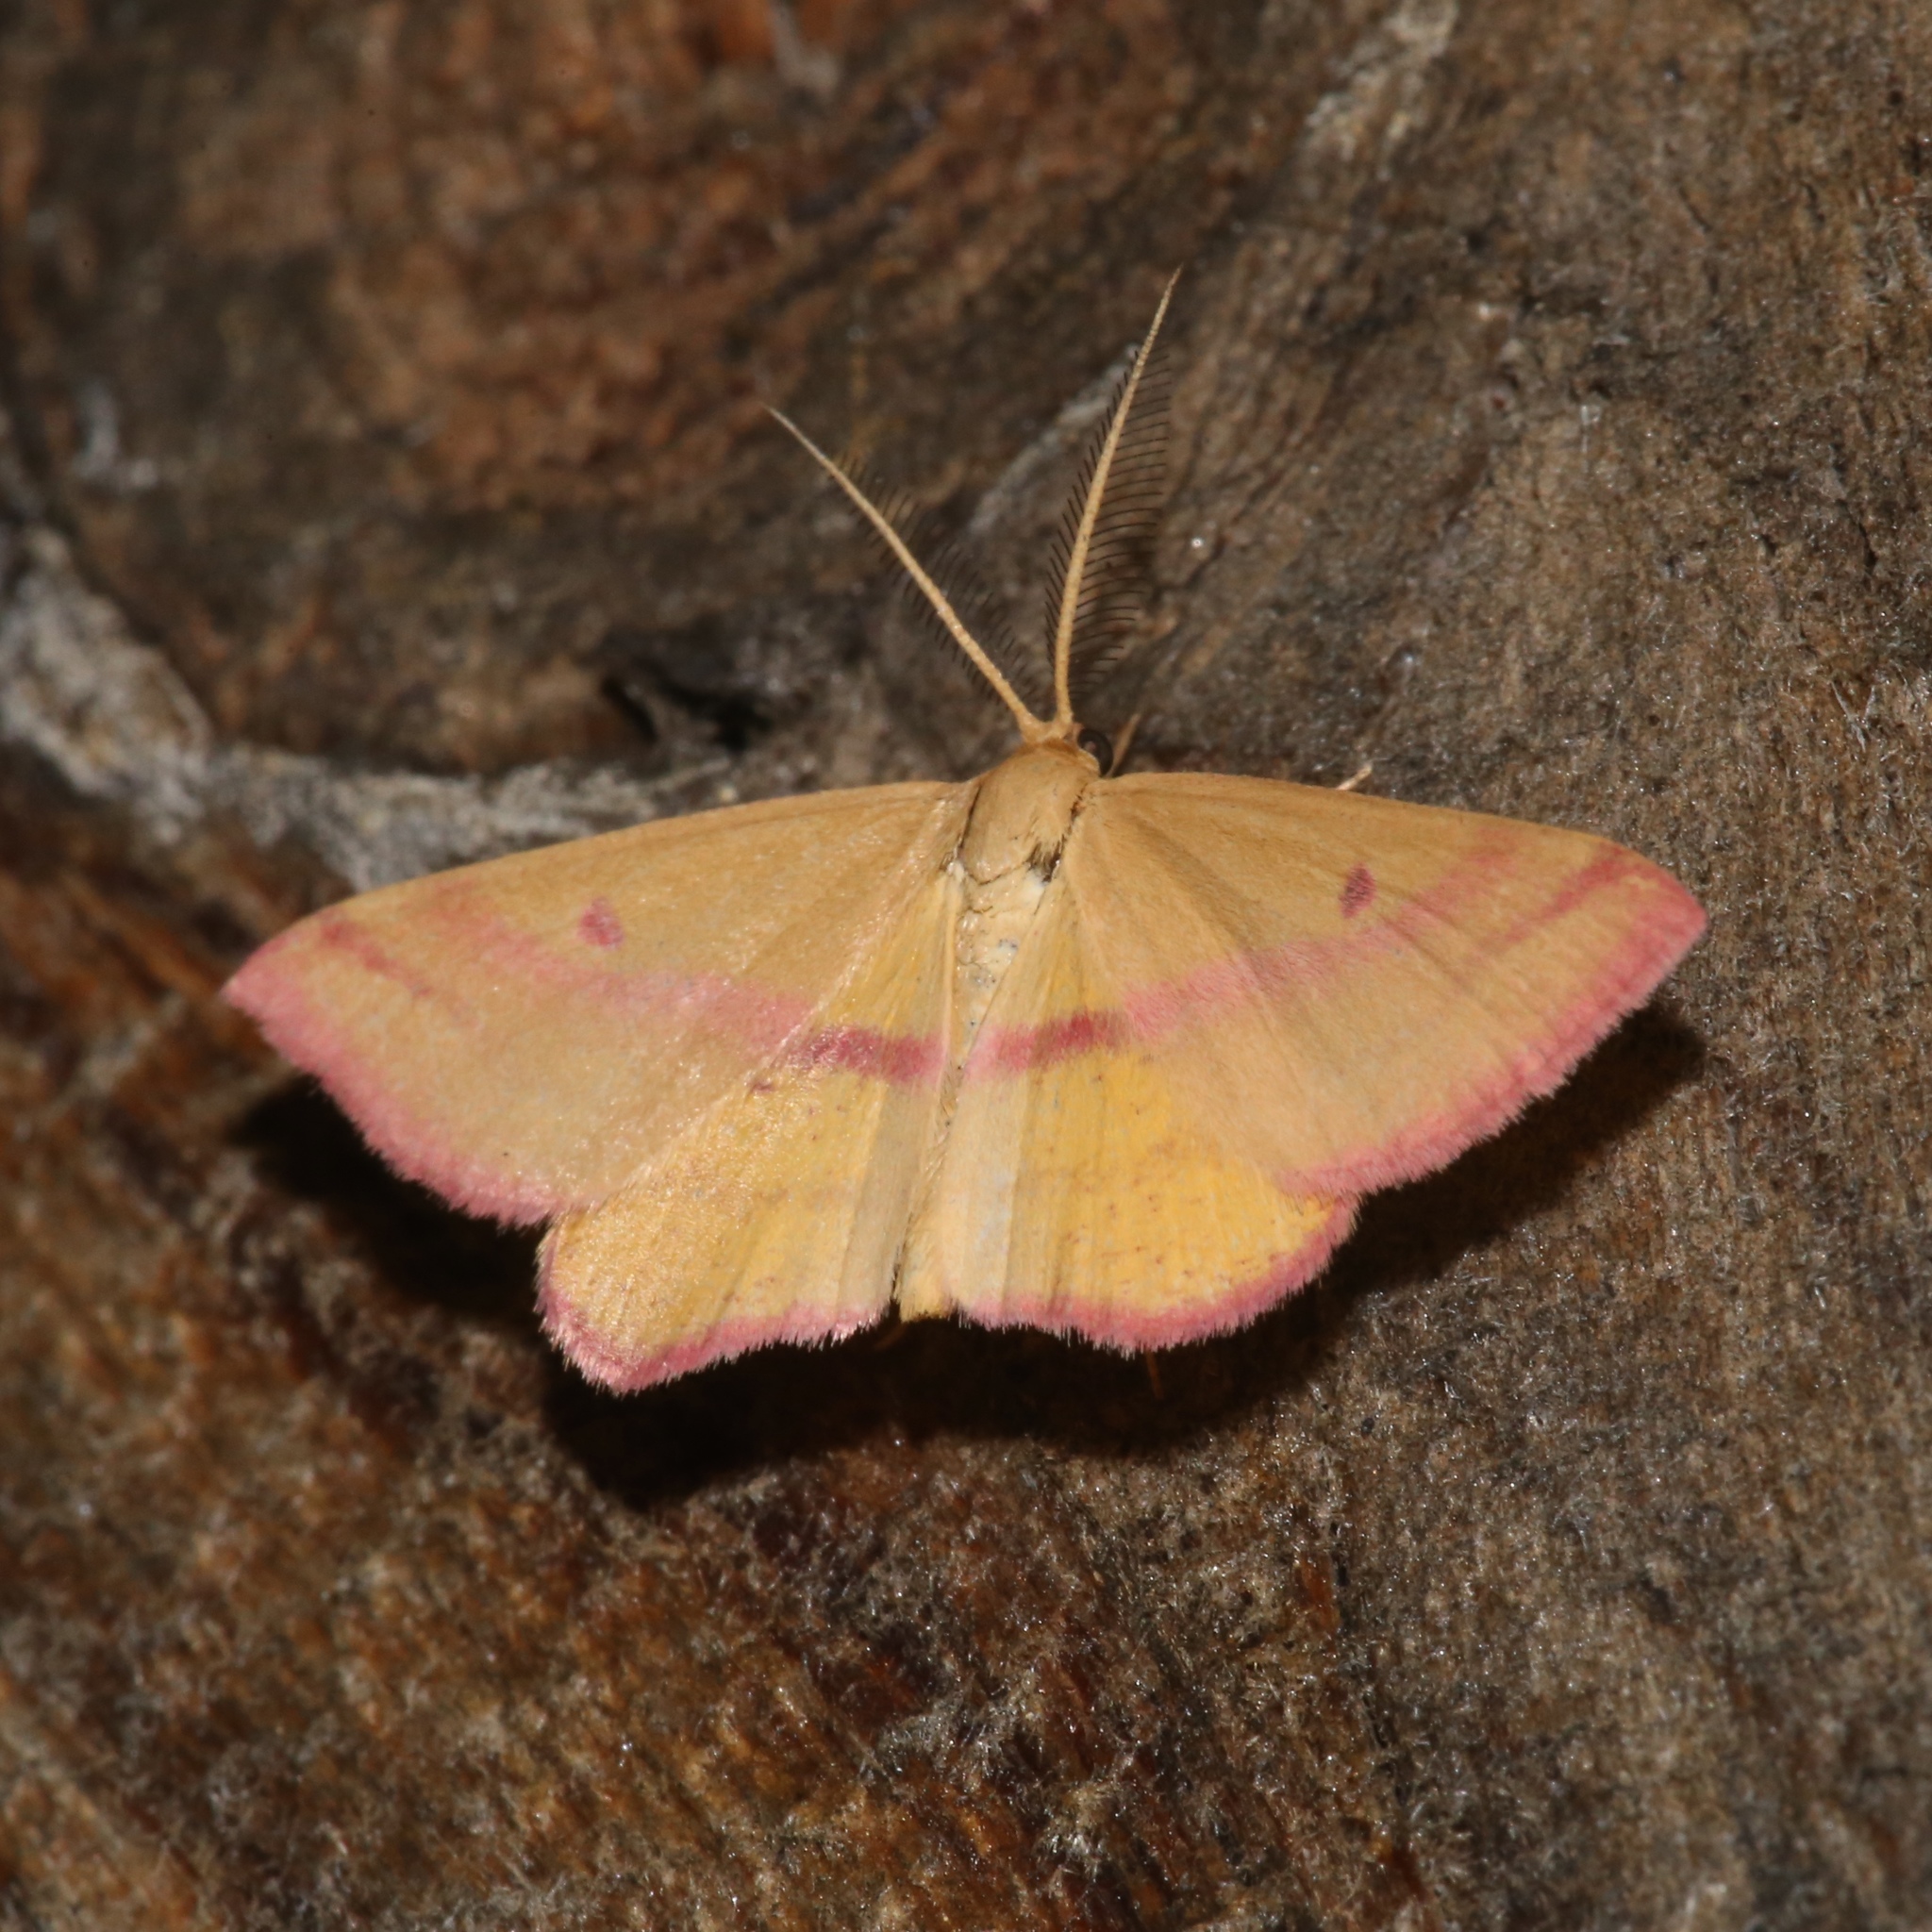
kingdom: Animalia
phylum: Arthropoda
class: Insecta
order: Lepidoptera
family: Geometridae
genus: Haematopis
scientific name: Haematopis grataria
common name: Chickweed geometer
